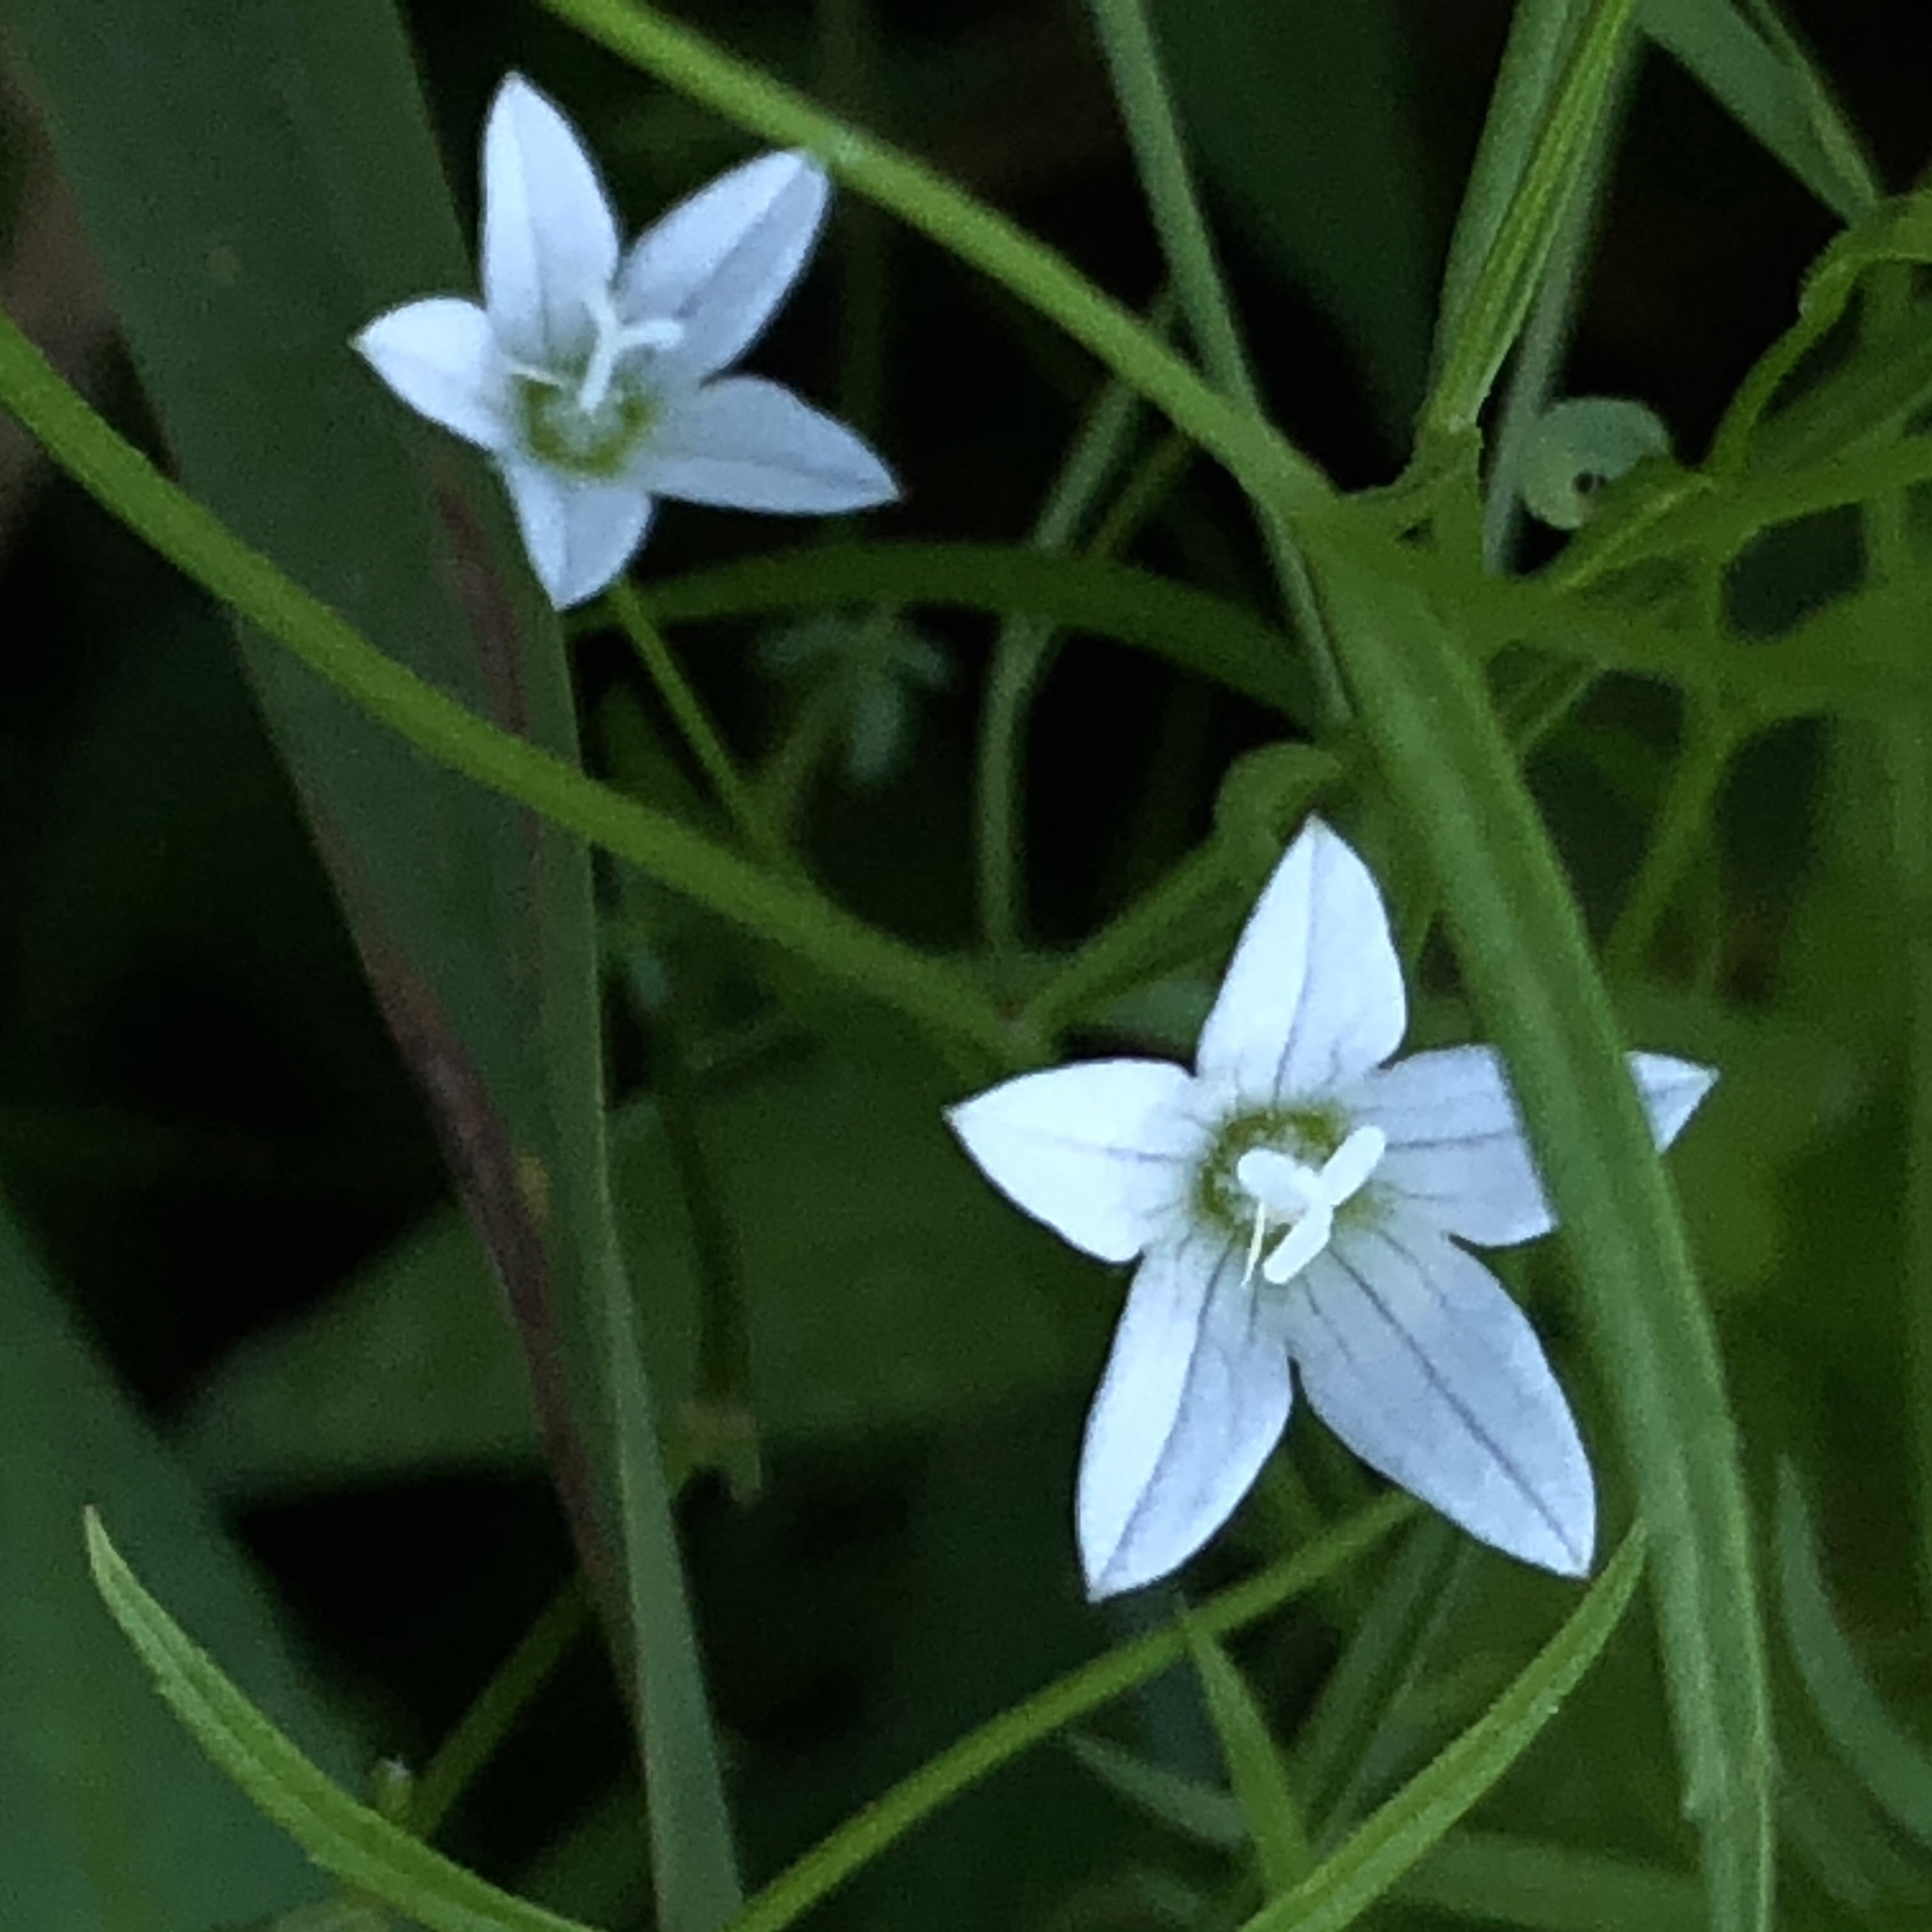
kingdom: Plantae
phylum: Tracheophyta
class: Magnoliopsida
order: Asterales
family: Campanulaceae
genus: Palustricodon
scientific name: Palustricodon aparinoides
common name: Bedstraw bellflower
